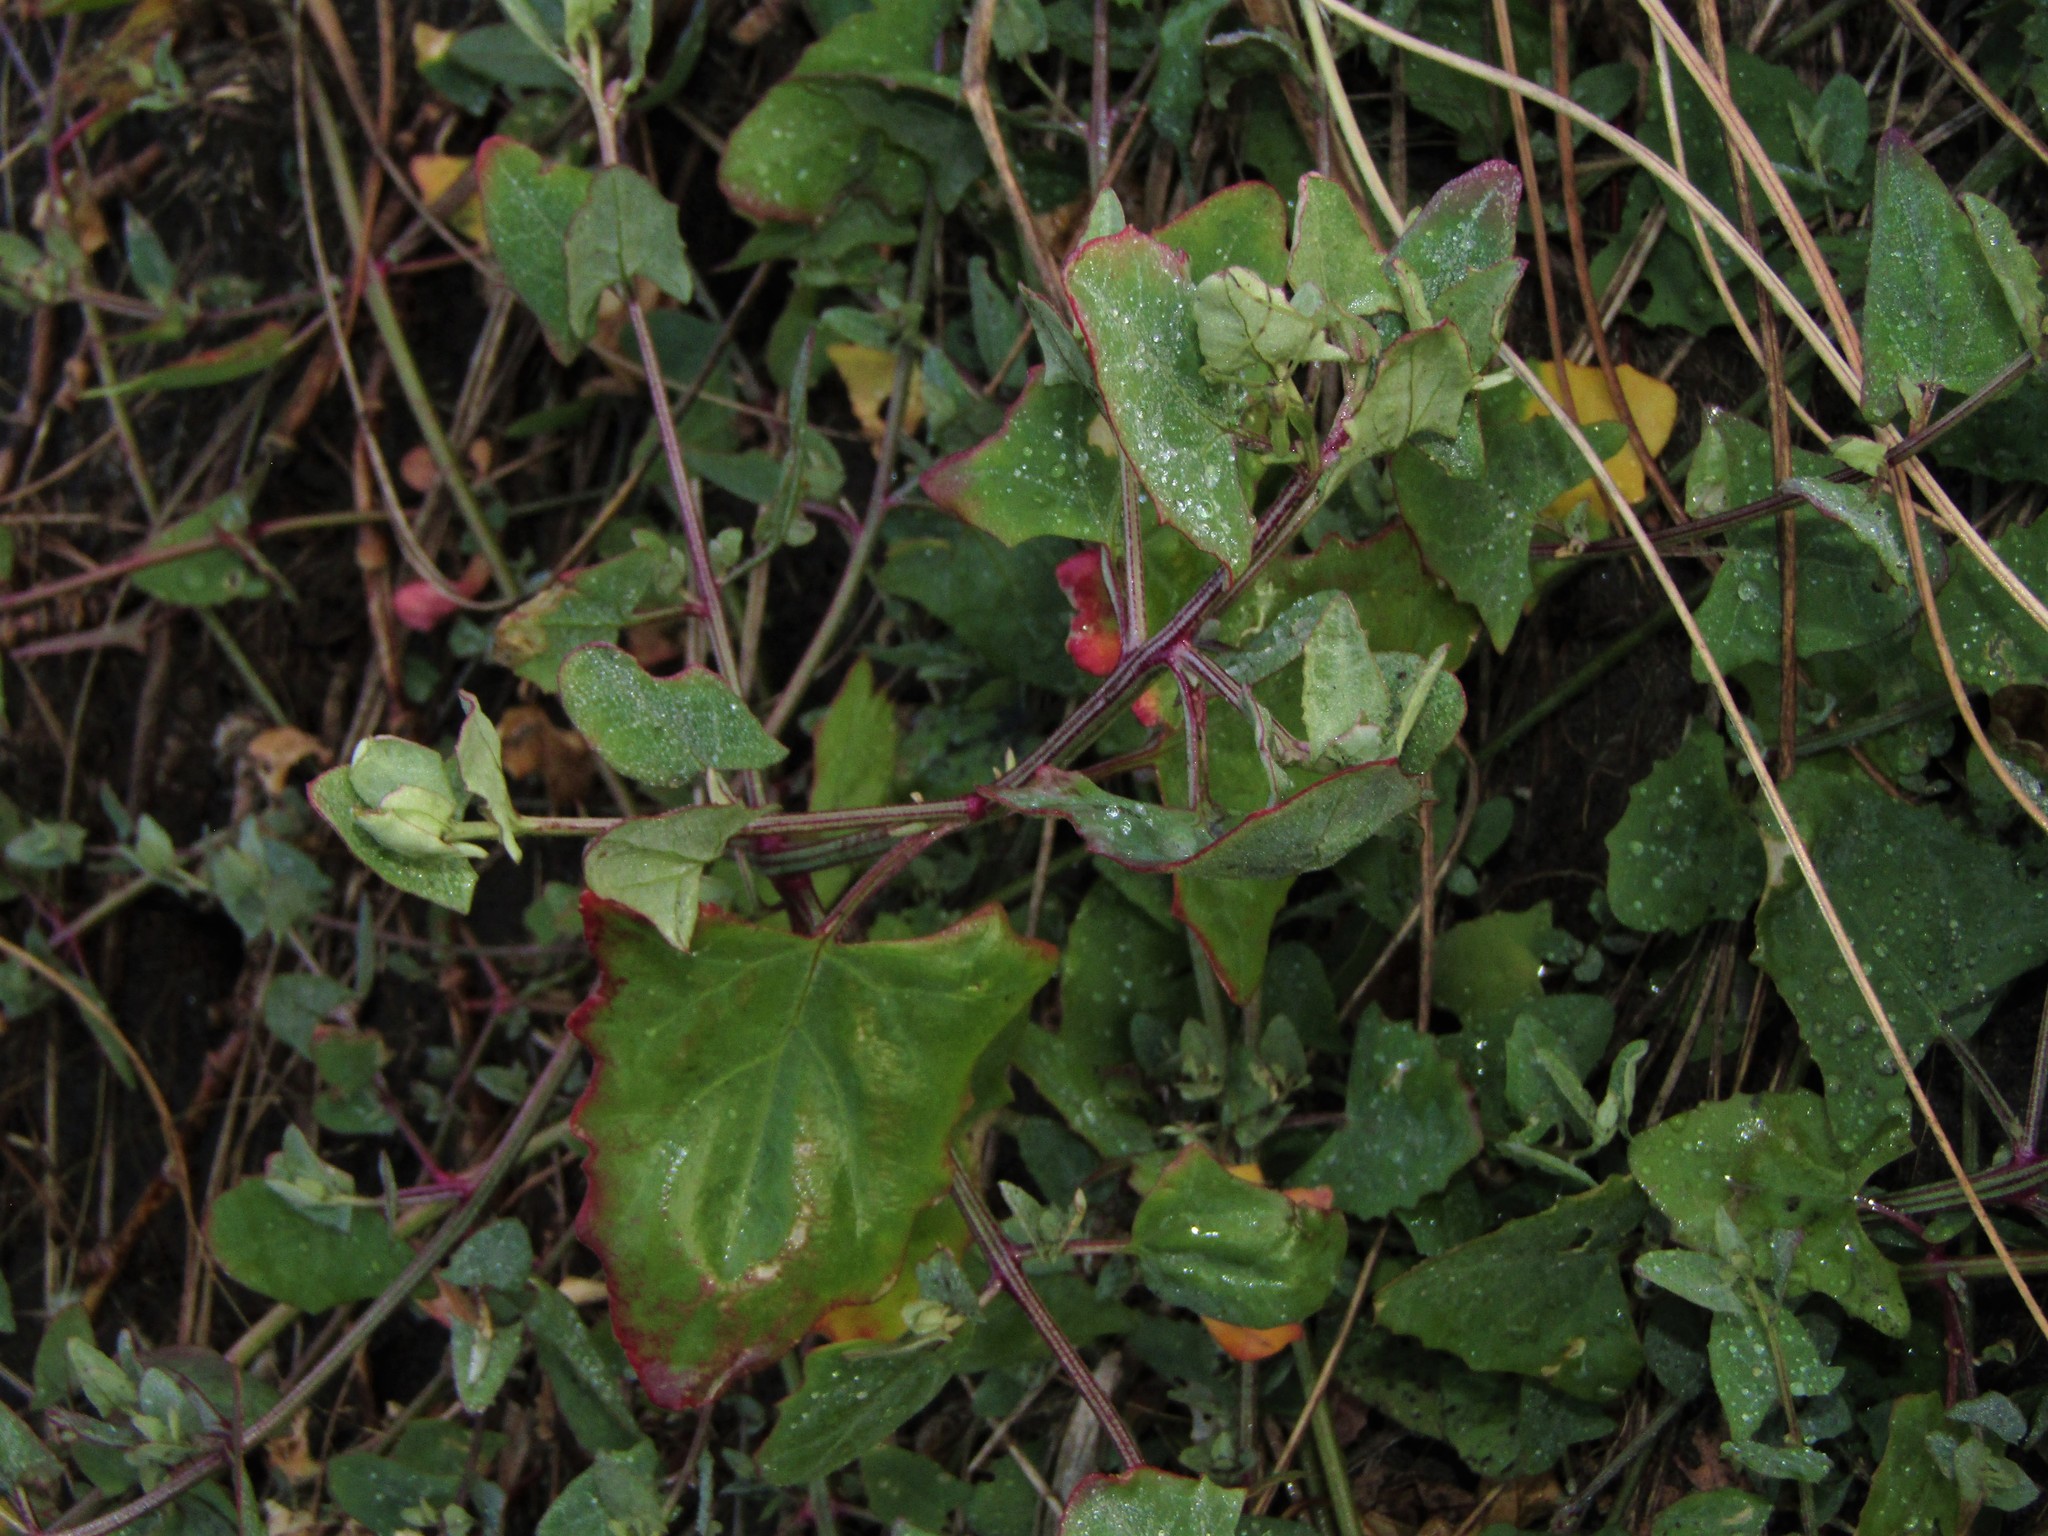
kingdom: Plantae
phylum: Tracheophyta
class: Magnoliopsida
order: Caryophyllales
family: Amaranthaceae
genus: Atriplex
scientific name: Atriplex prostrata
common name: Spear-leaved orache
